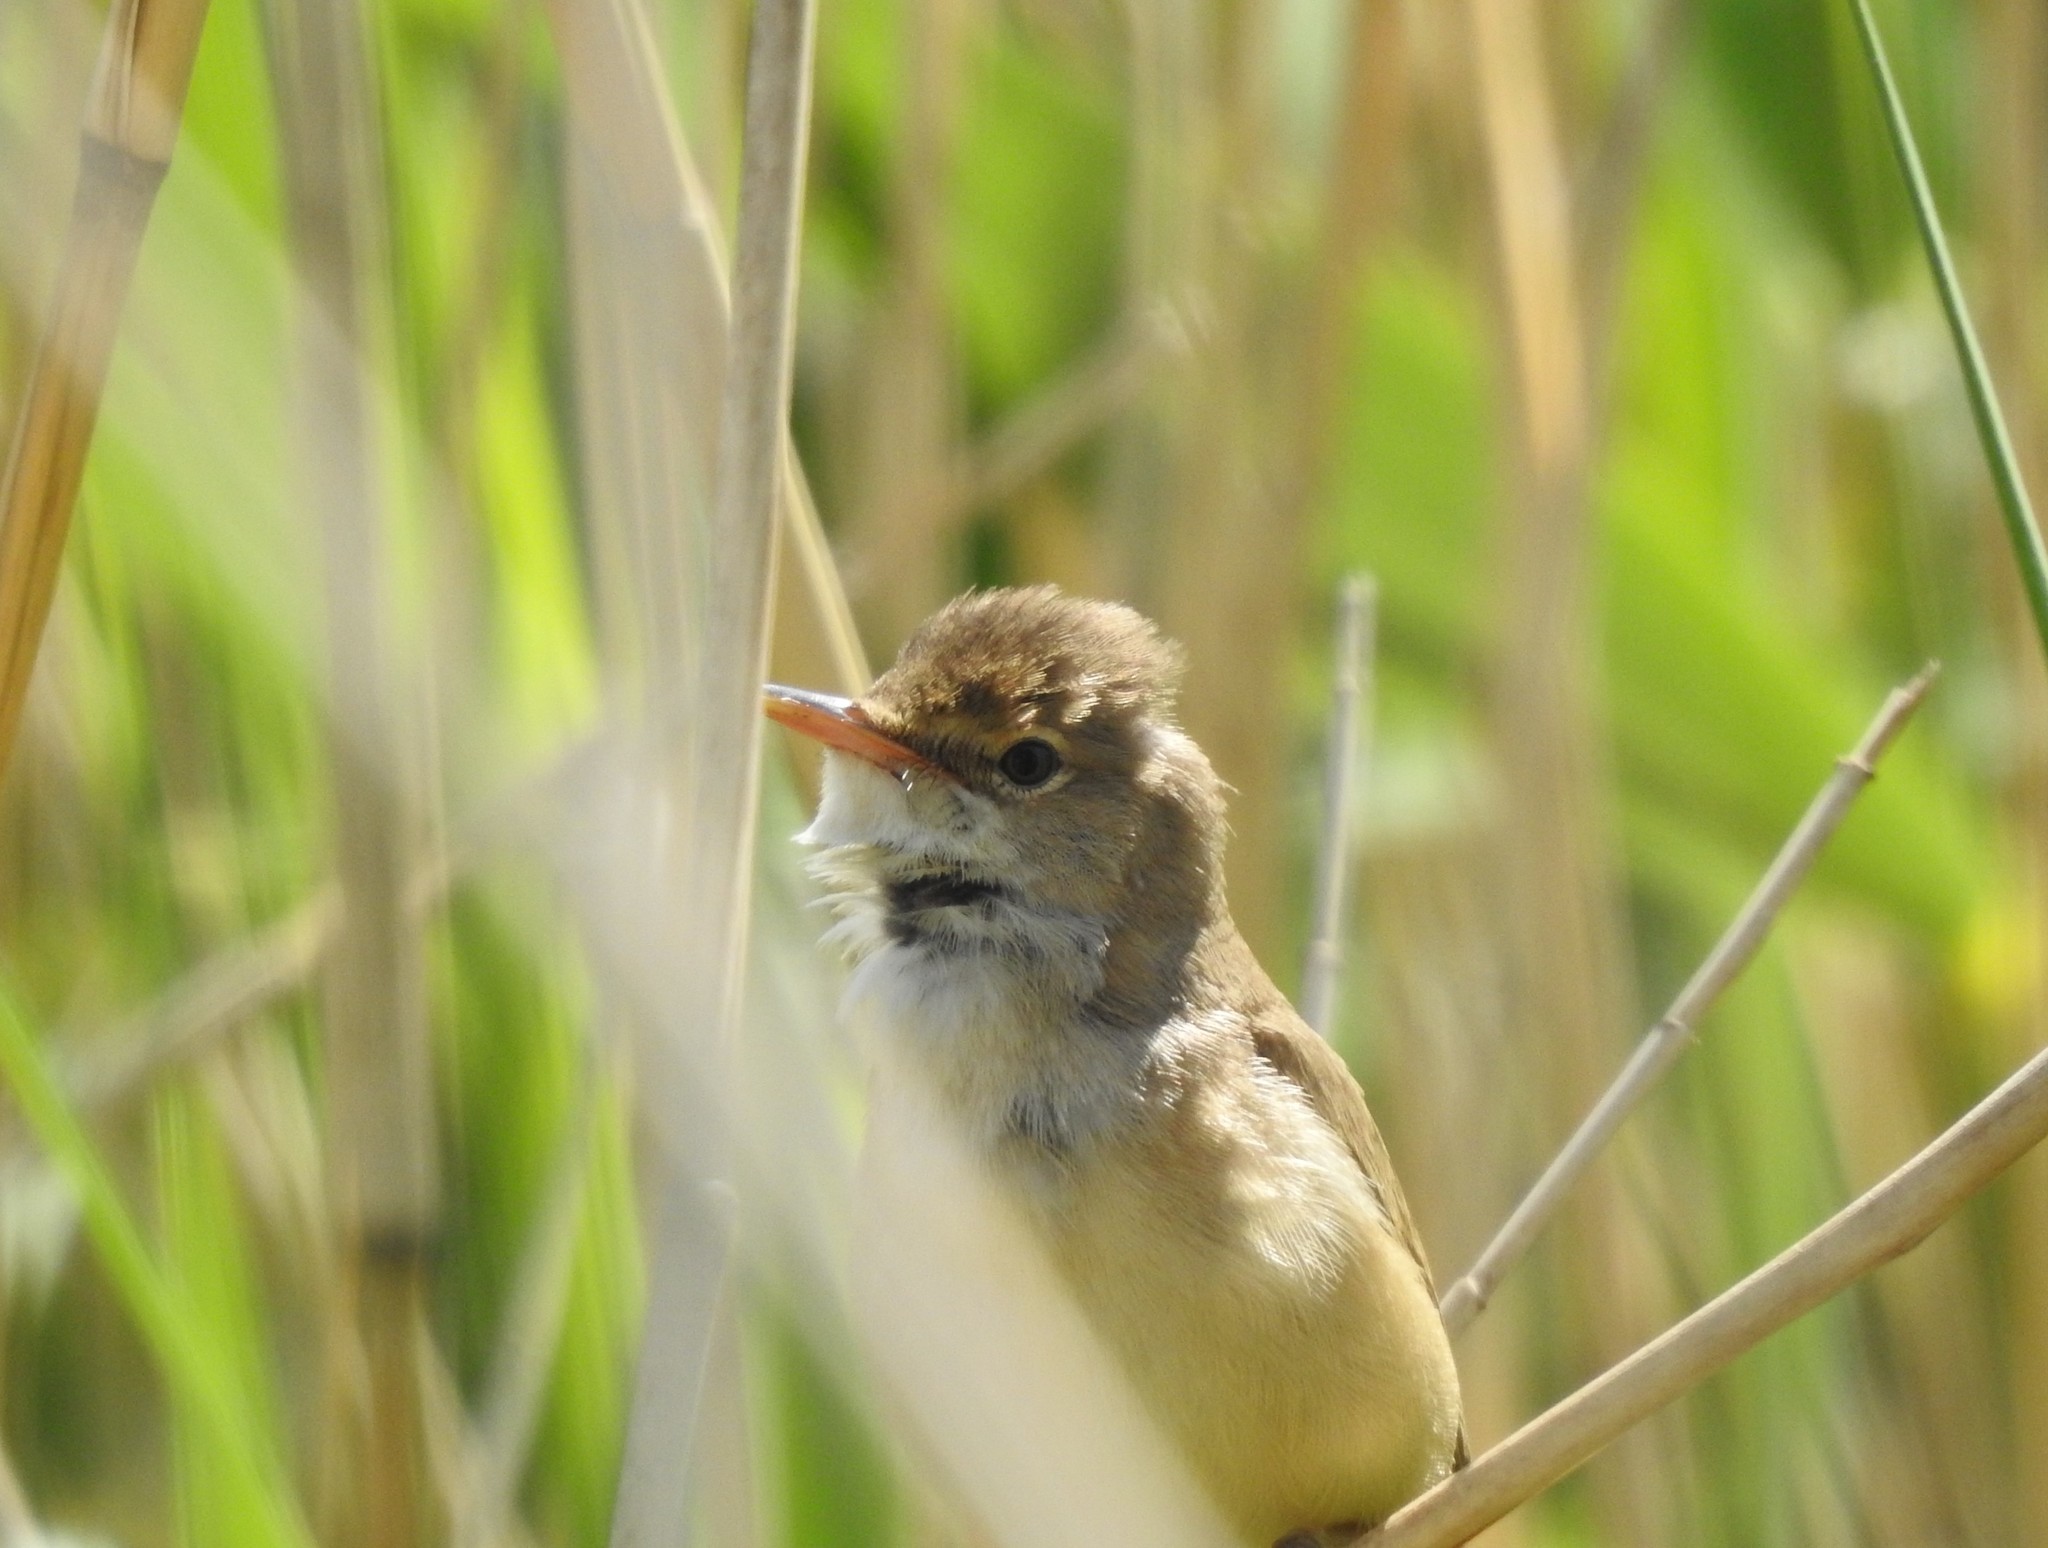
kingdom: Animalia
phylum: Chordata
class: Aves
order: Passeriformes
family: Acrocephalidae
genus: Acrocephalus
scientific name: Acrocephalus scirpaceus
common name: Eurasian reed warbler
